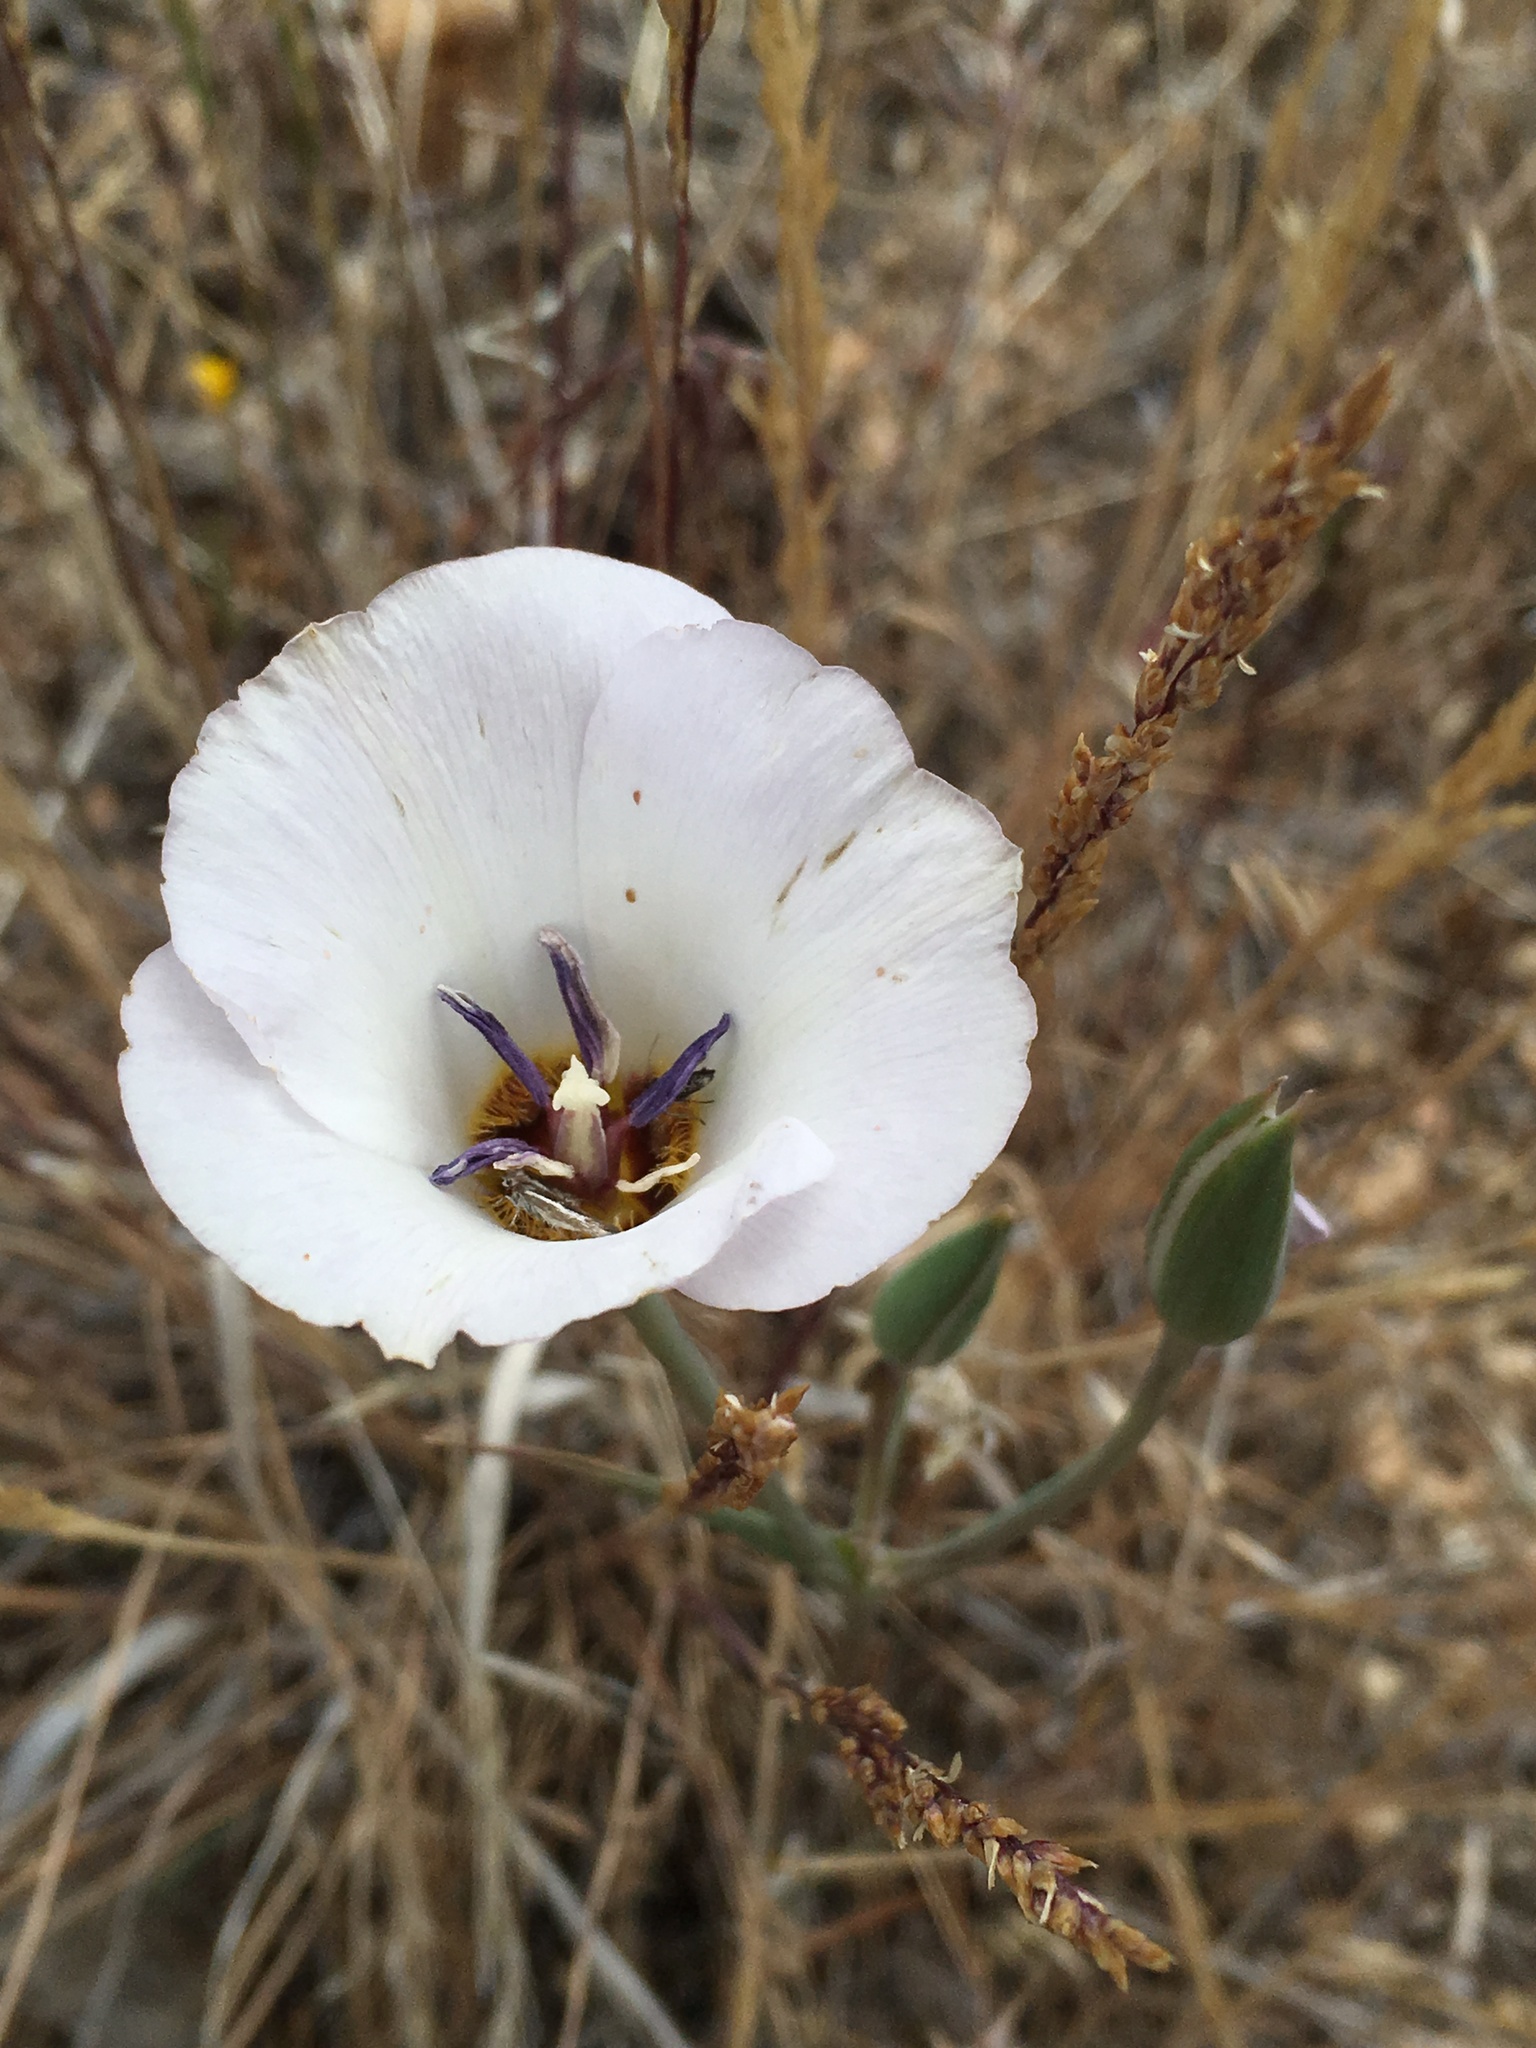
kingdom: Plantae
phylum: Tracheophyta
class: Liliopsida
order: Liliales
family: Liliaceae
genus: Calochortus
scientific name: Calochortus invenustus
